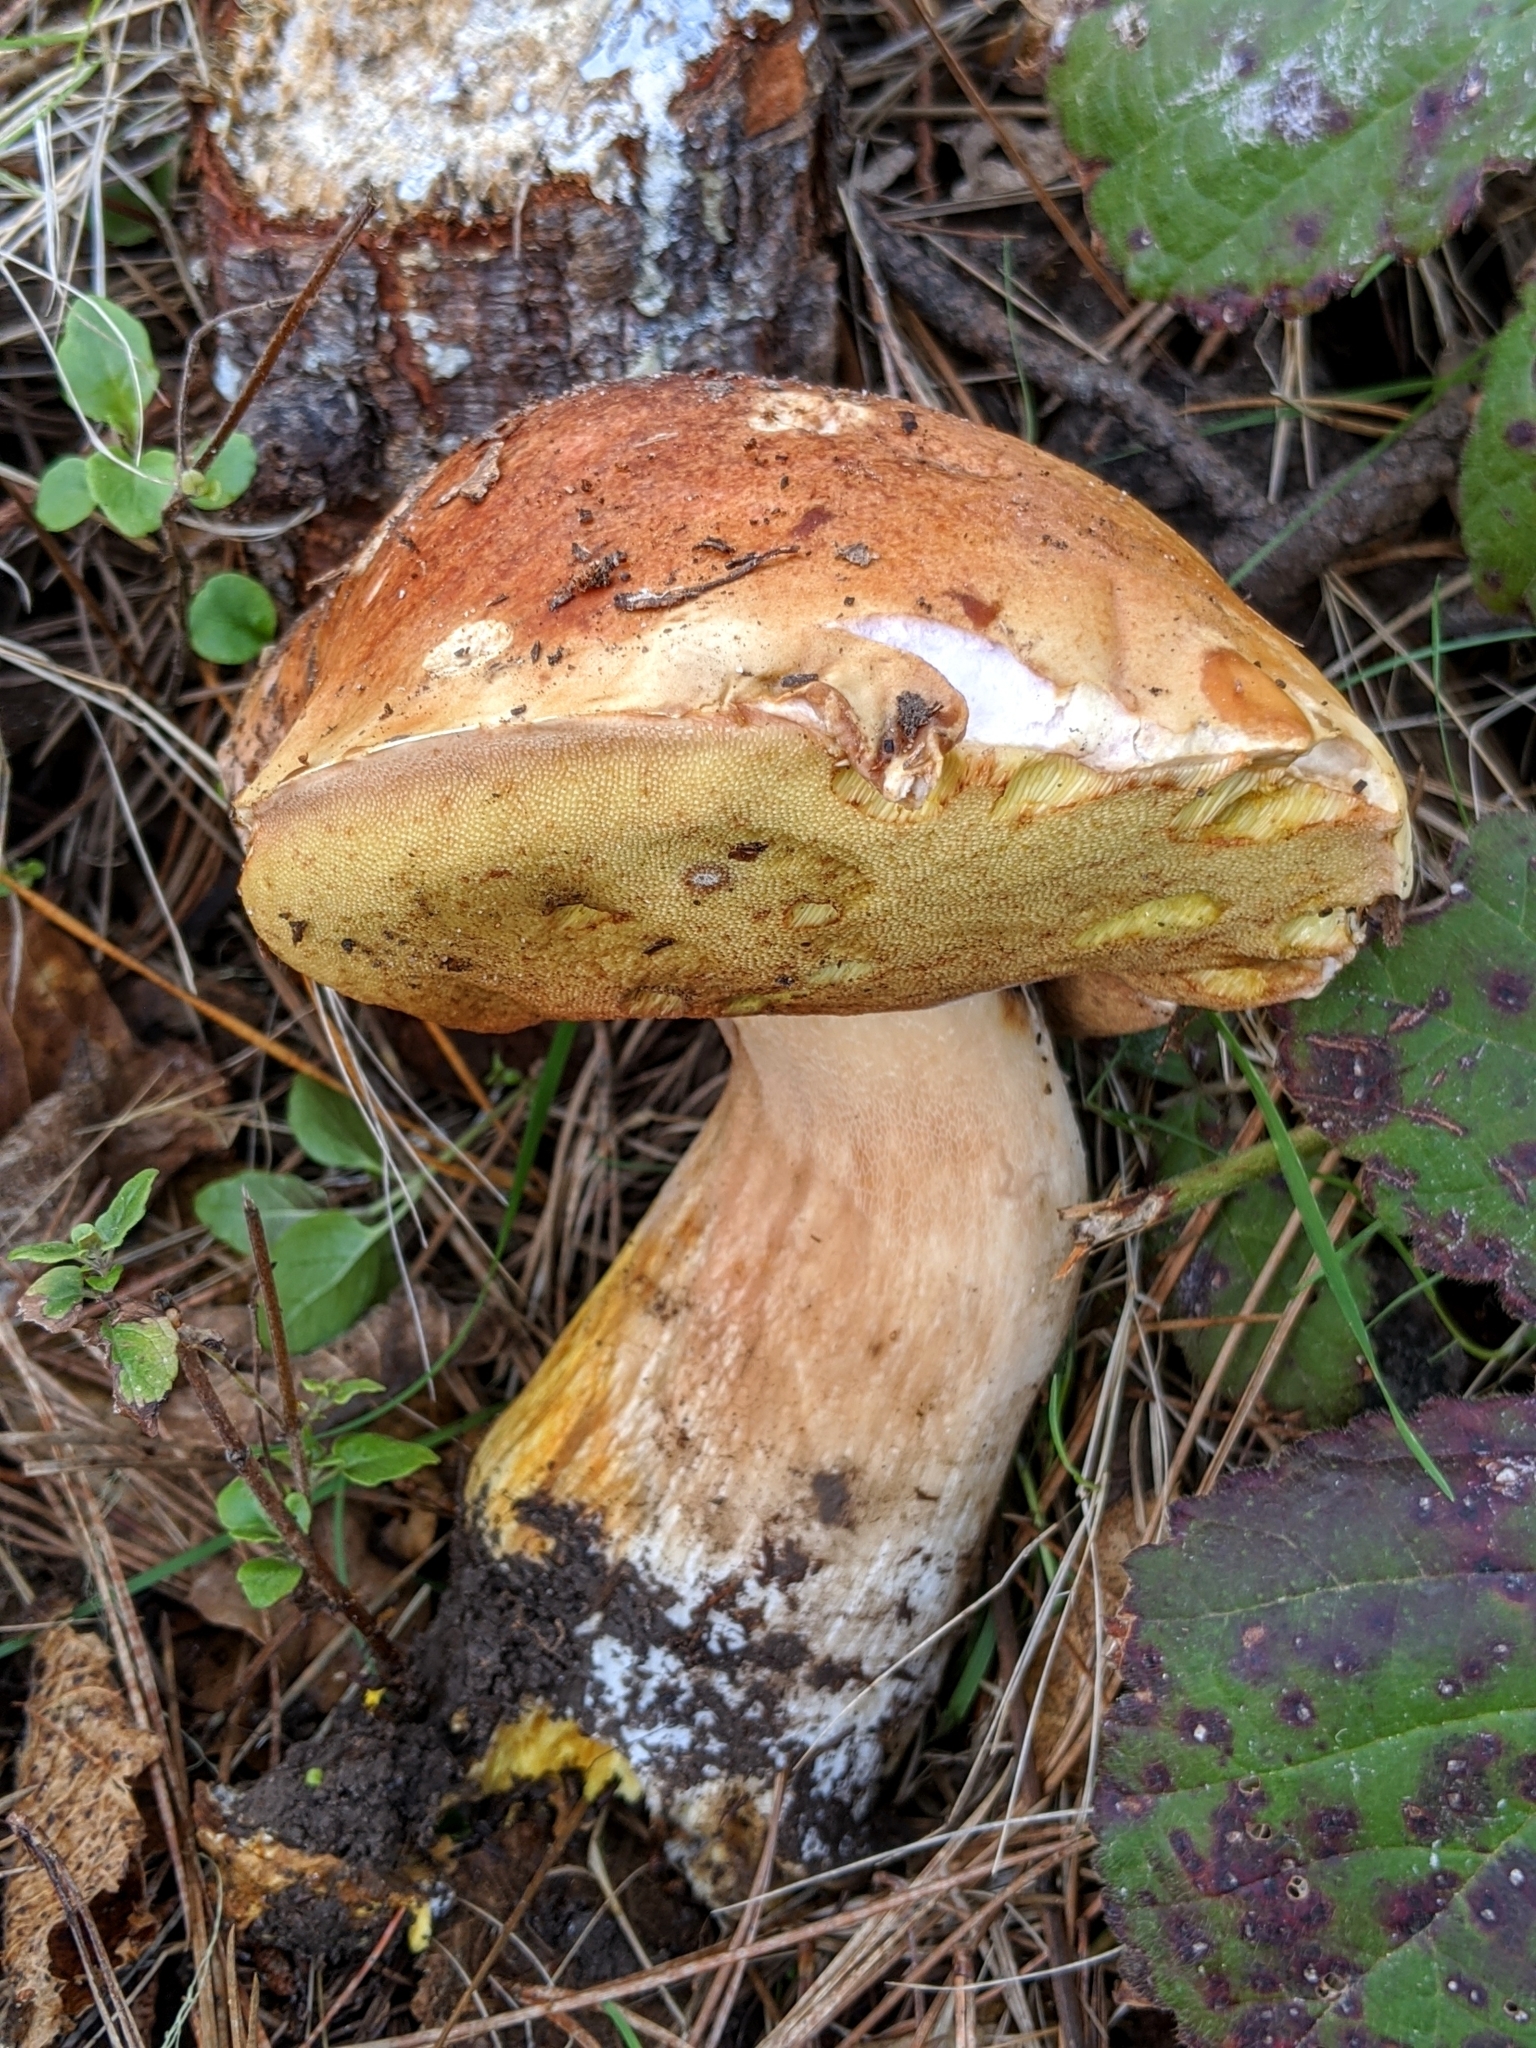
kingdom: Fungi
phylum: Basidiomycota
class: Agaricomycetes
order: Boletales
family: Boletaceae
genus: Boletus
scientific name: Boletus edulis
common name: Cep
